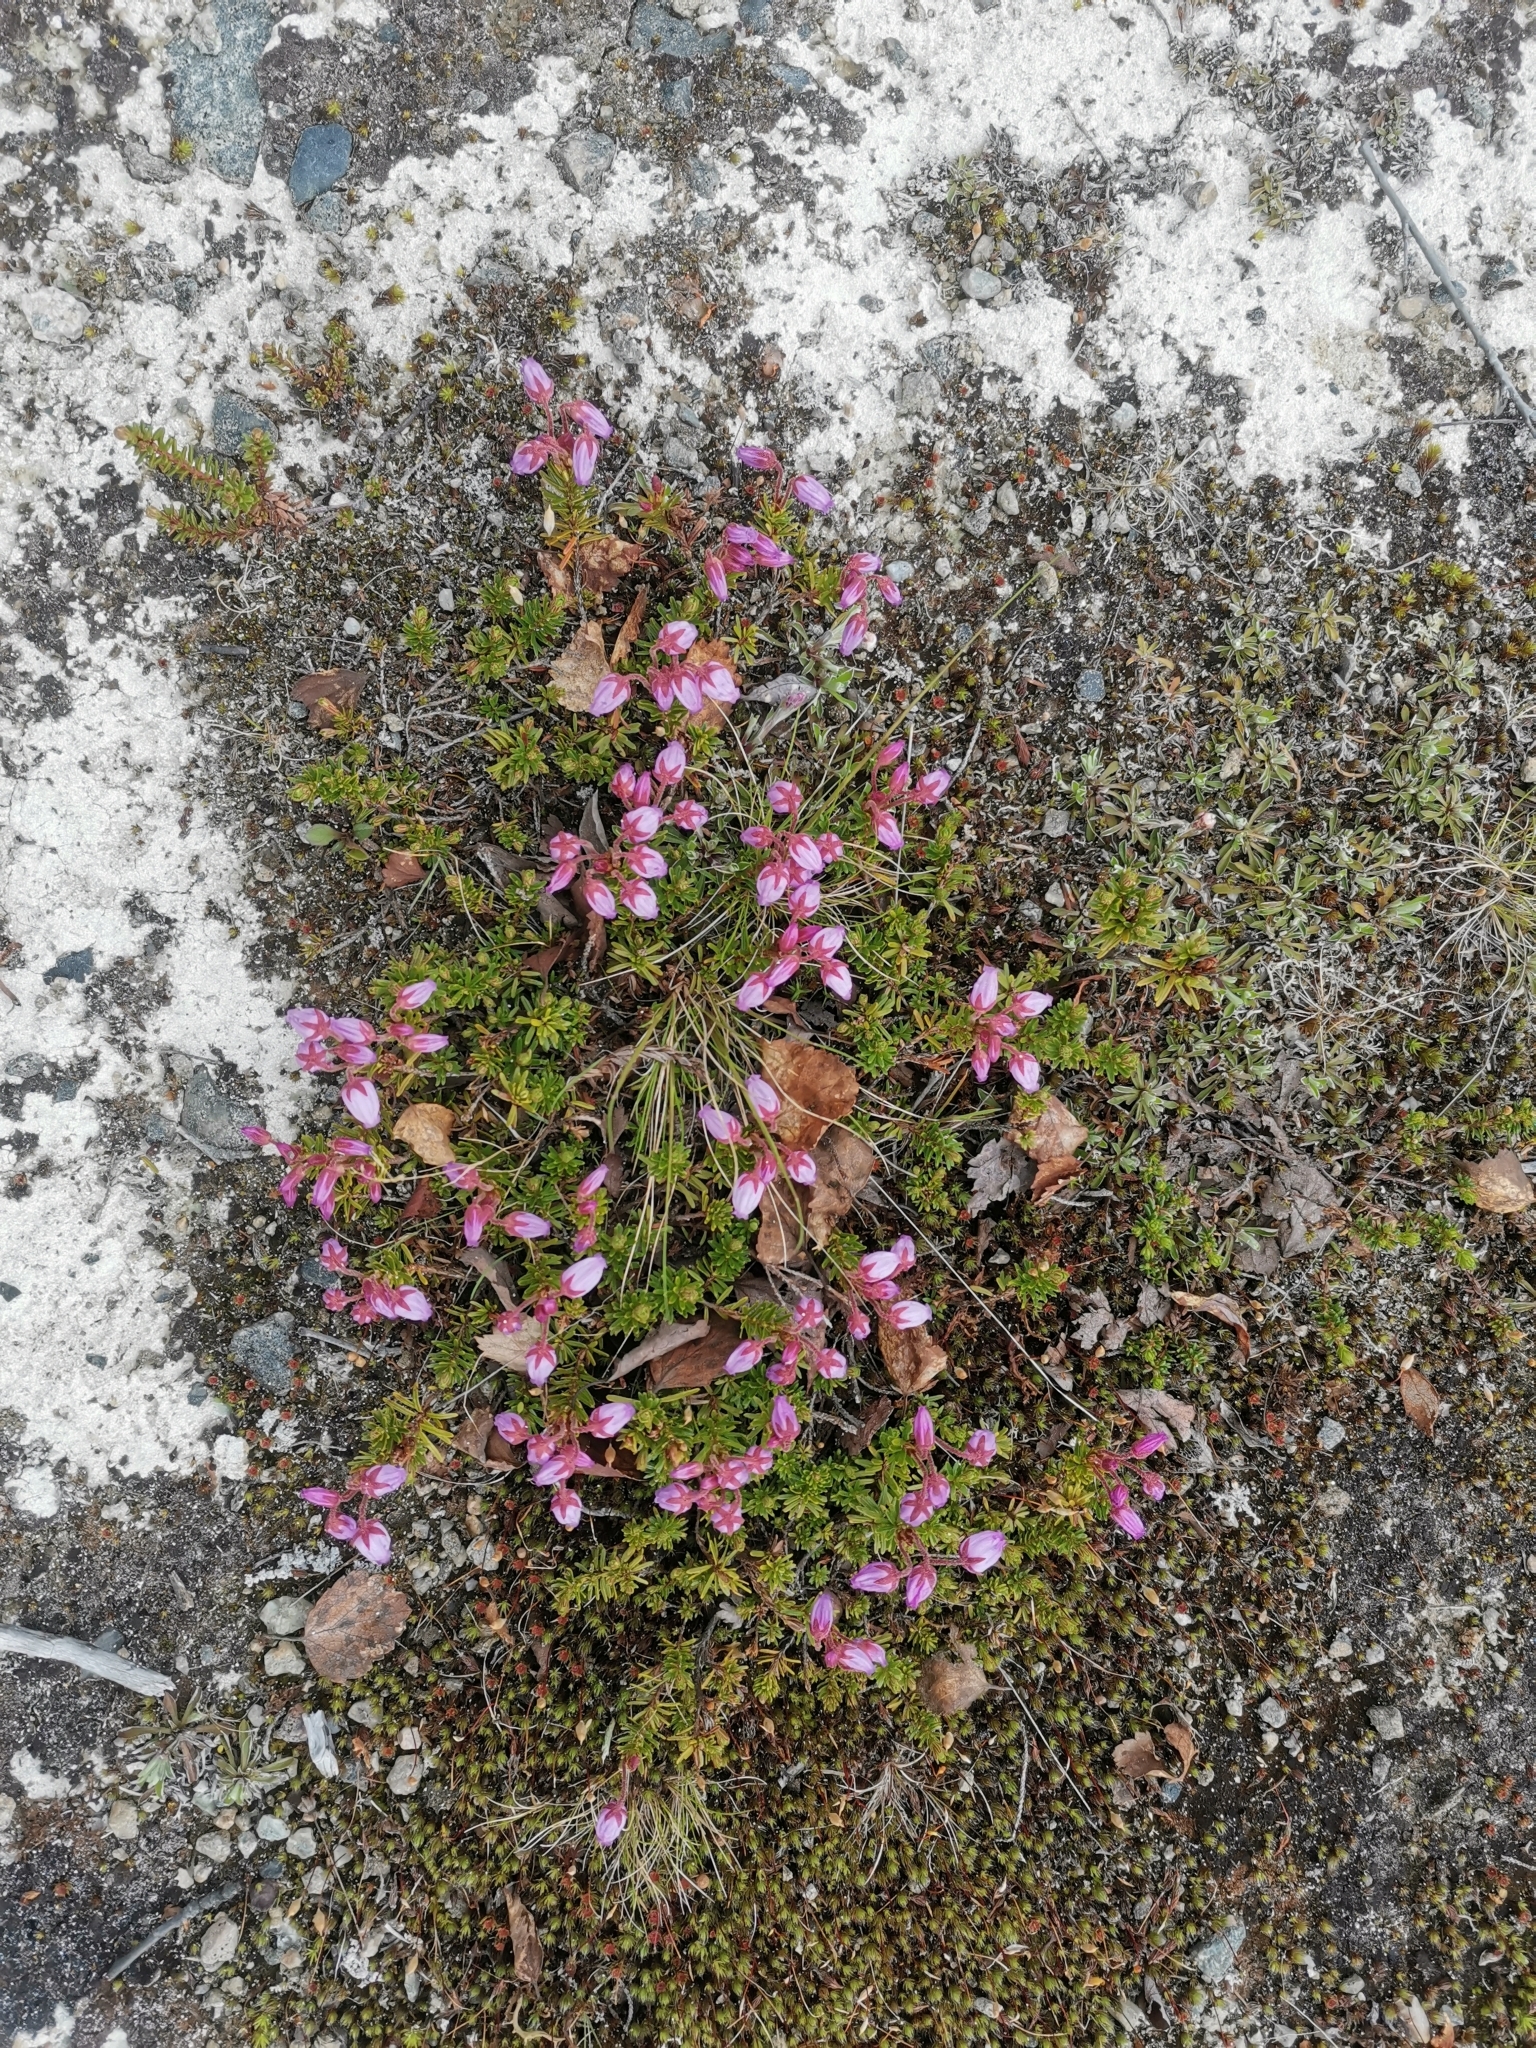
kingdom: Plantae
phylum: Tracheophyta
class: Magnoliopsida
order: Ericales
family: Ericaceae
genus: Phyllodoce
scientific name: Phyllodoce caerulea
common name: Blue heath
